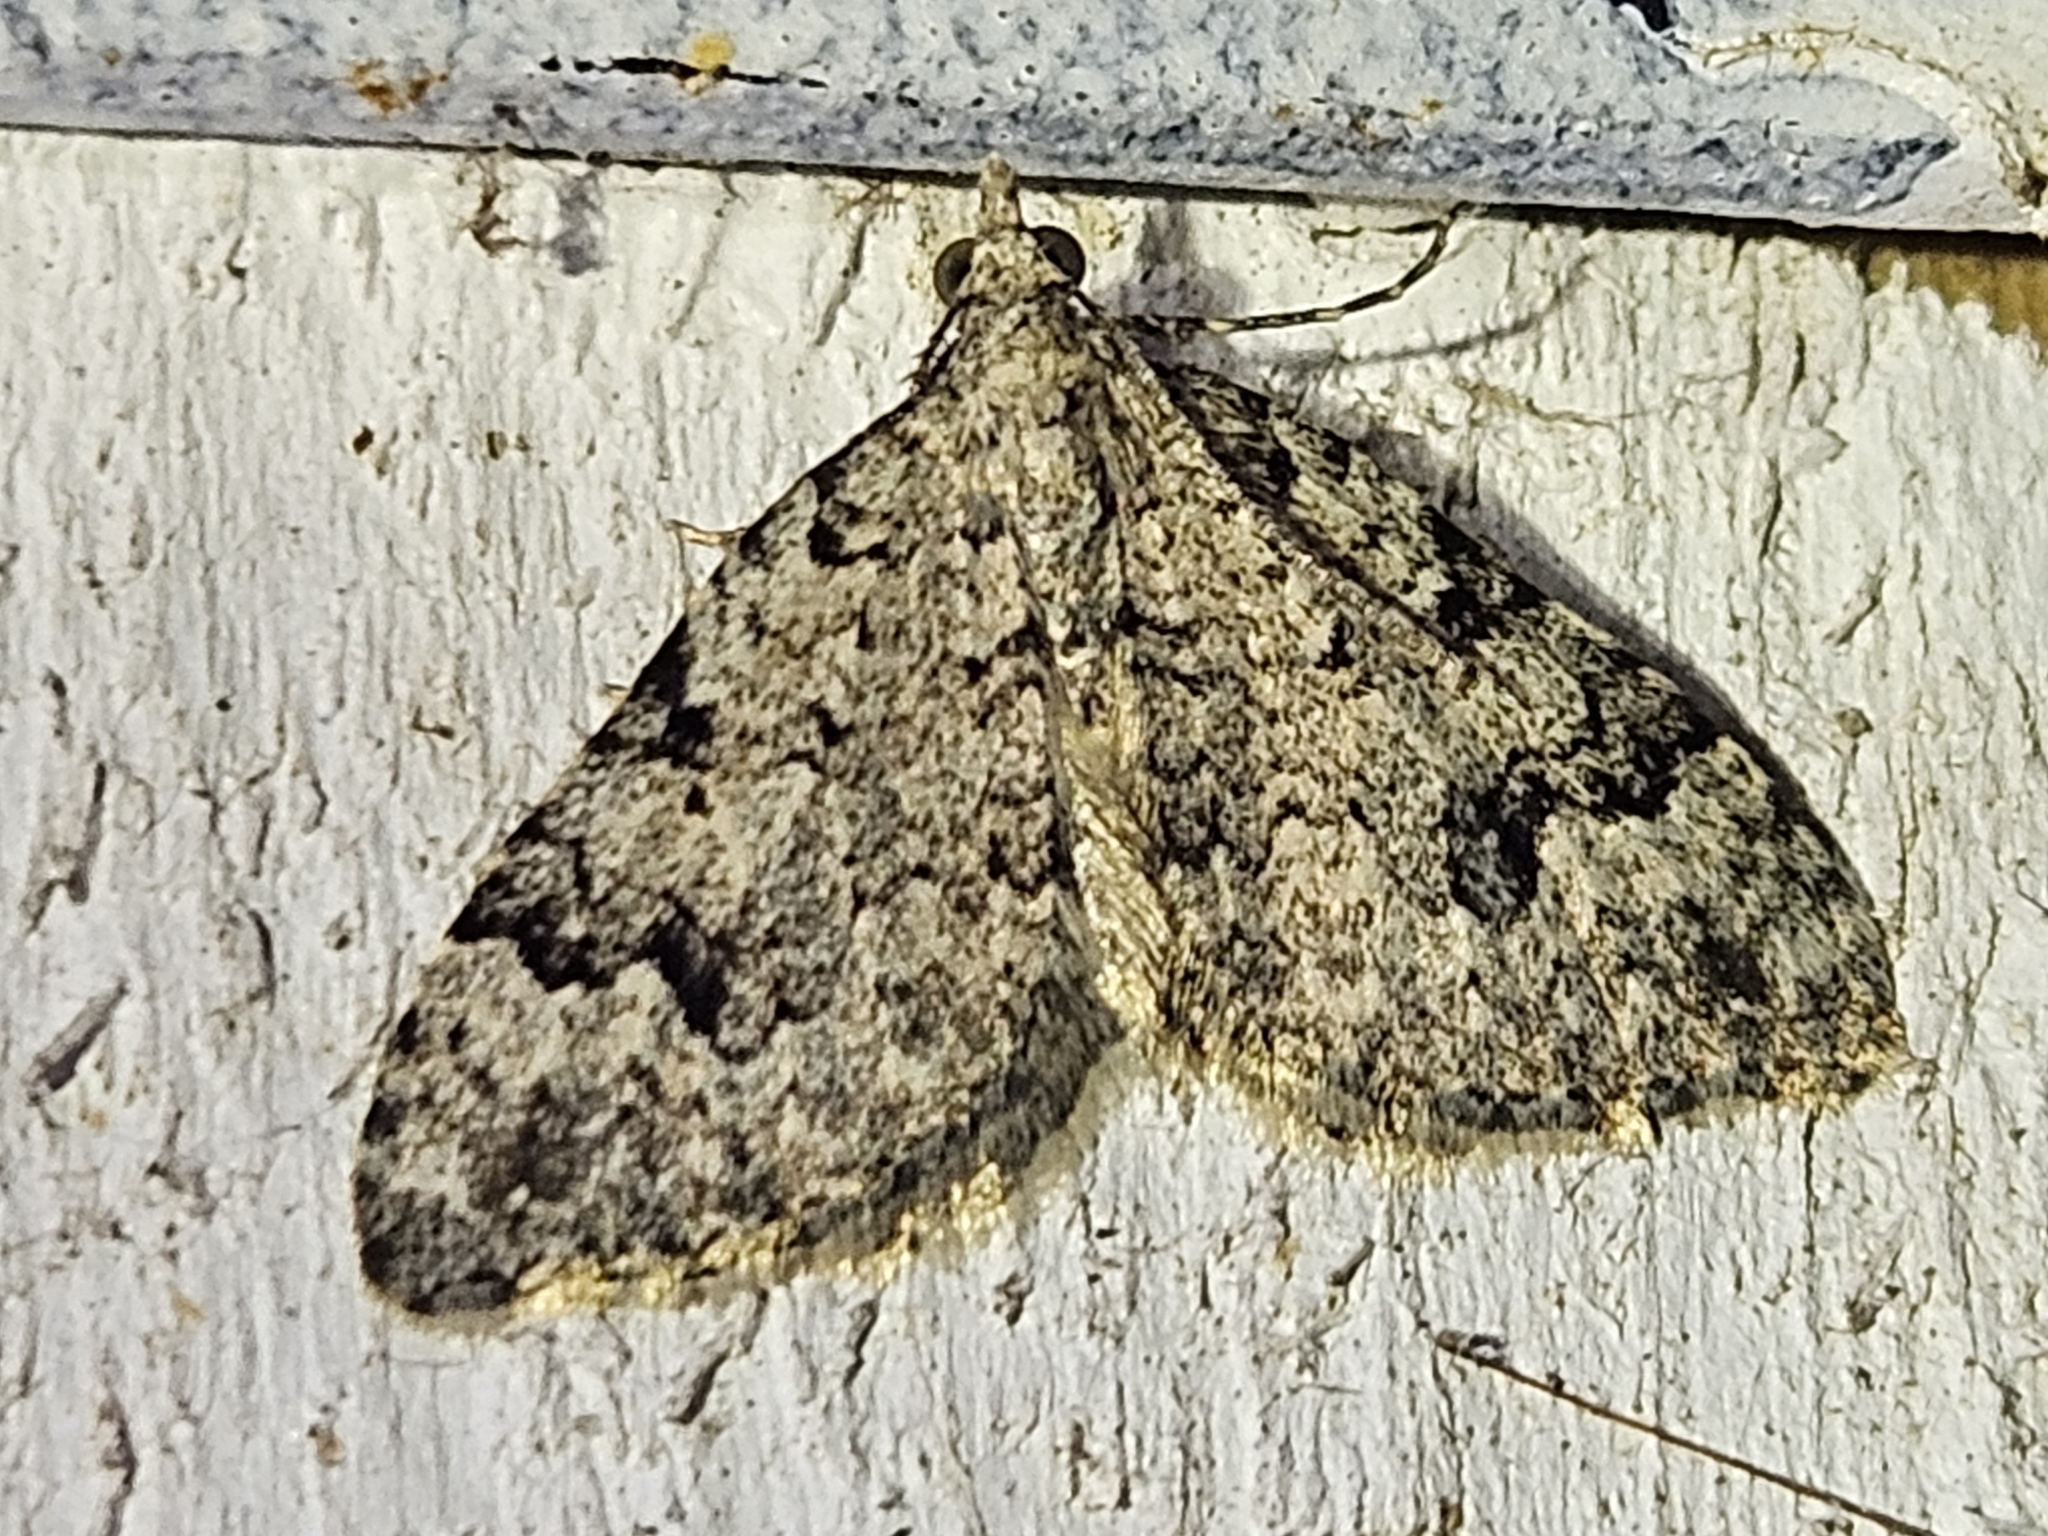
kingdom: Animalia
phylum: Arthropoda
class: Insecta
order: Lepidoptera
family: Geometridae
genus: Helastia
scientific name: Helastia cinerearia
